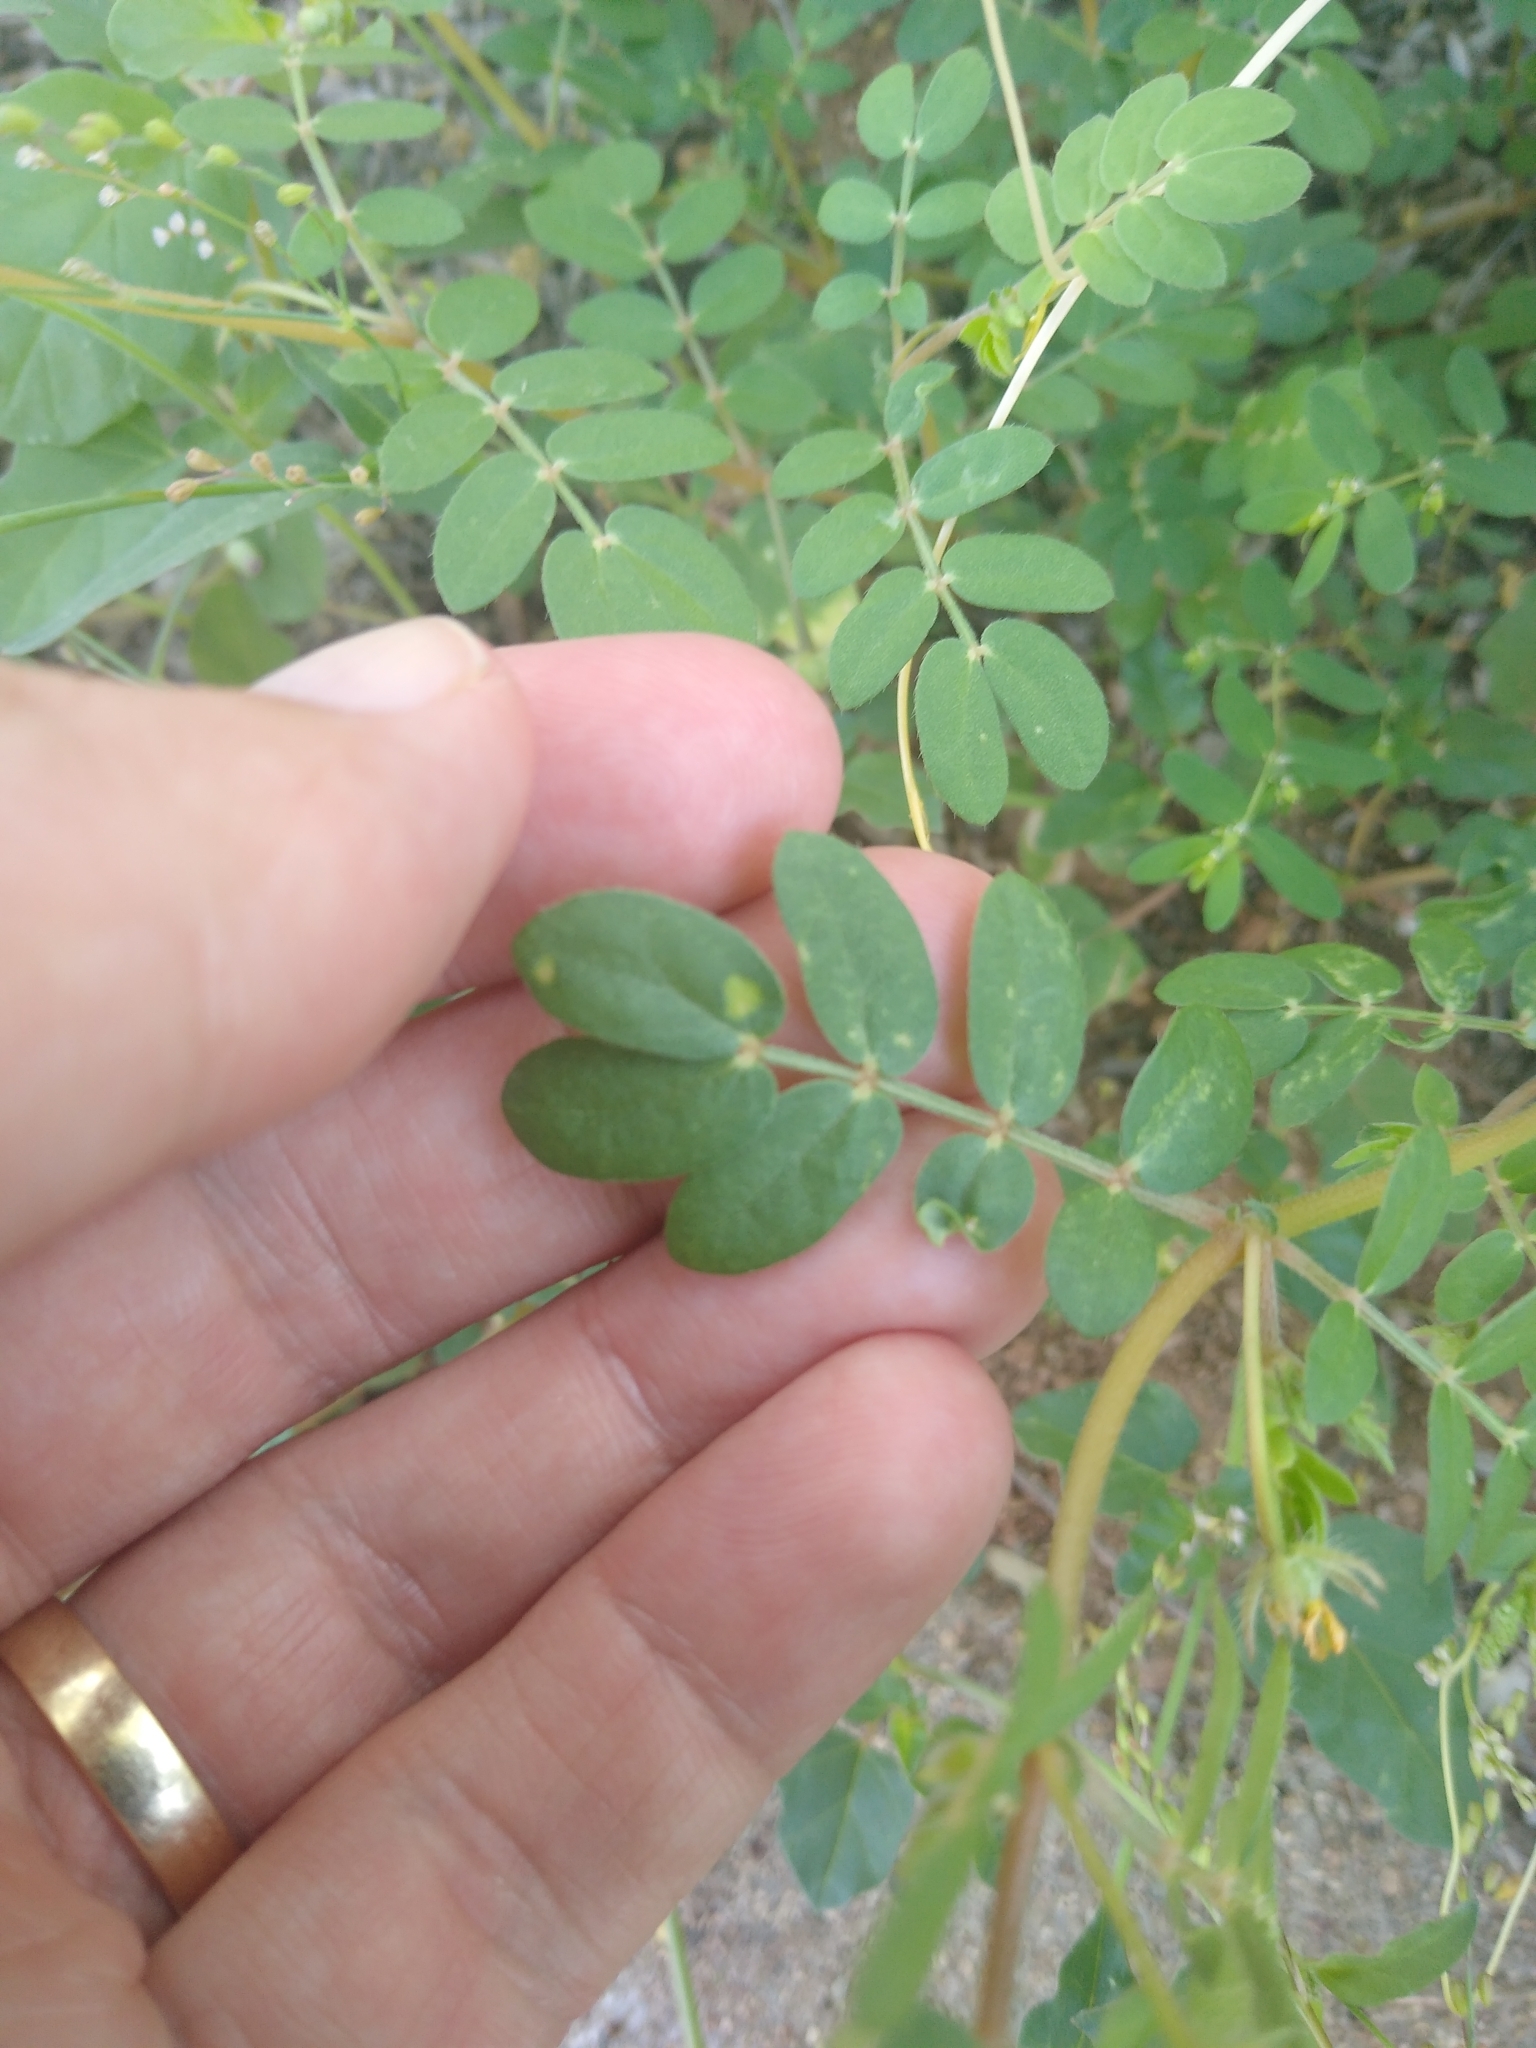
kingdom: Plantae
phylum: Tracheophyta
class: Magnoliopsida
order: Zygophyllales
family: Zygophyllaceae
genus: Kallstroemia
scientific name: Kallstroemia parviflora
